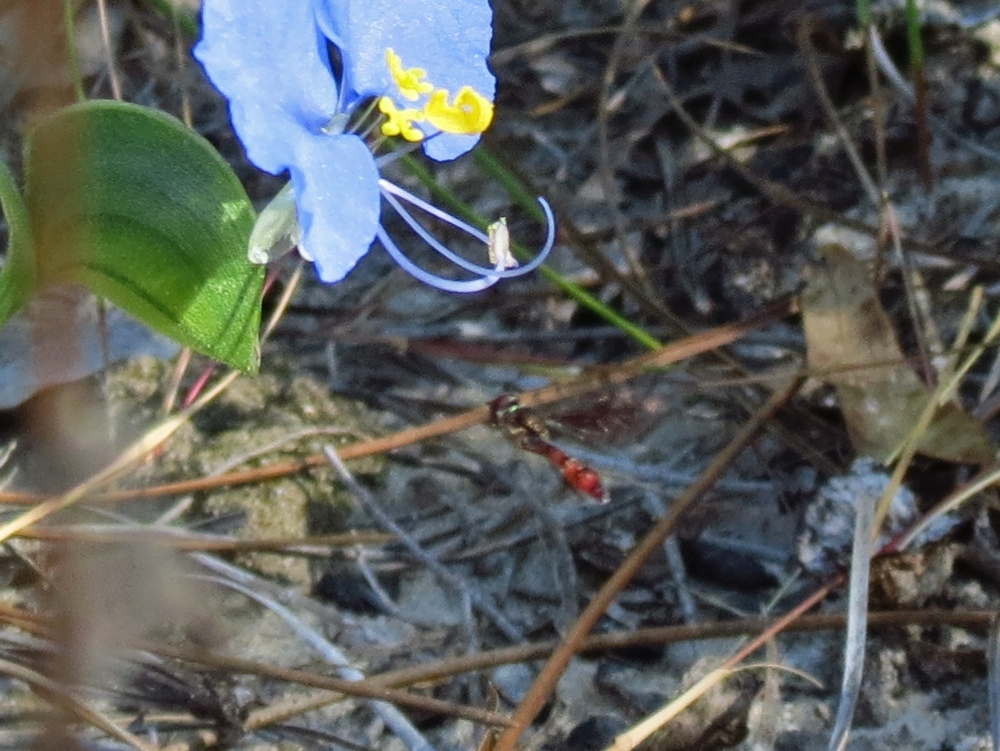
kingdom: Animalia
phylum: Arthropoda
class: Insecta
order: Diptera
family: Syrphidae
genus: Ocyptamus
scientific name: Ocyptamus fuscipennis
